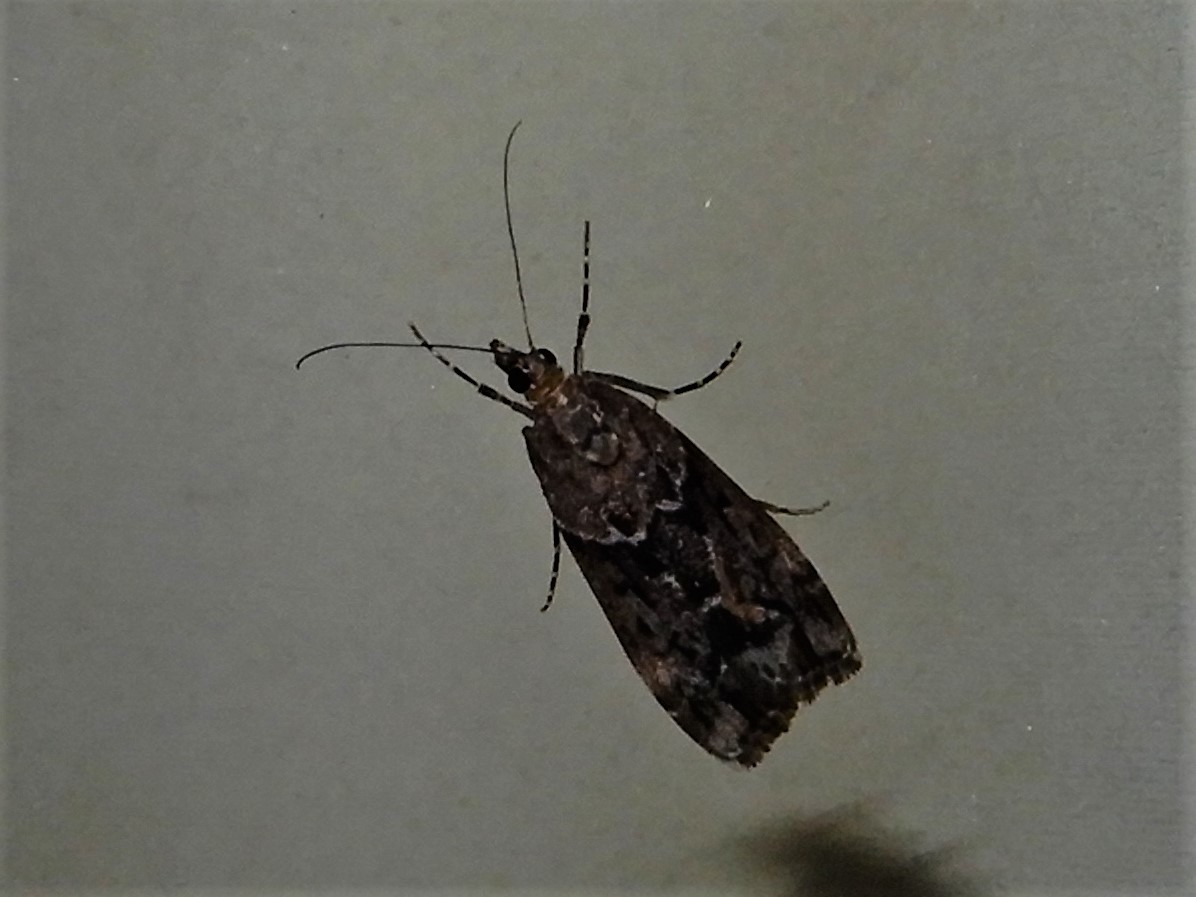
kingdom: Animalia
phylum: Arthropoda
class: Insecta
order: Lepidoptera
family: Crambidae
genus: Eudonia
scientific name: Eudonia submarginalis
